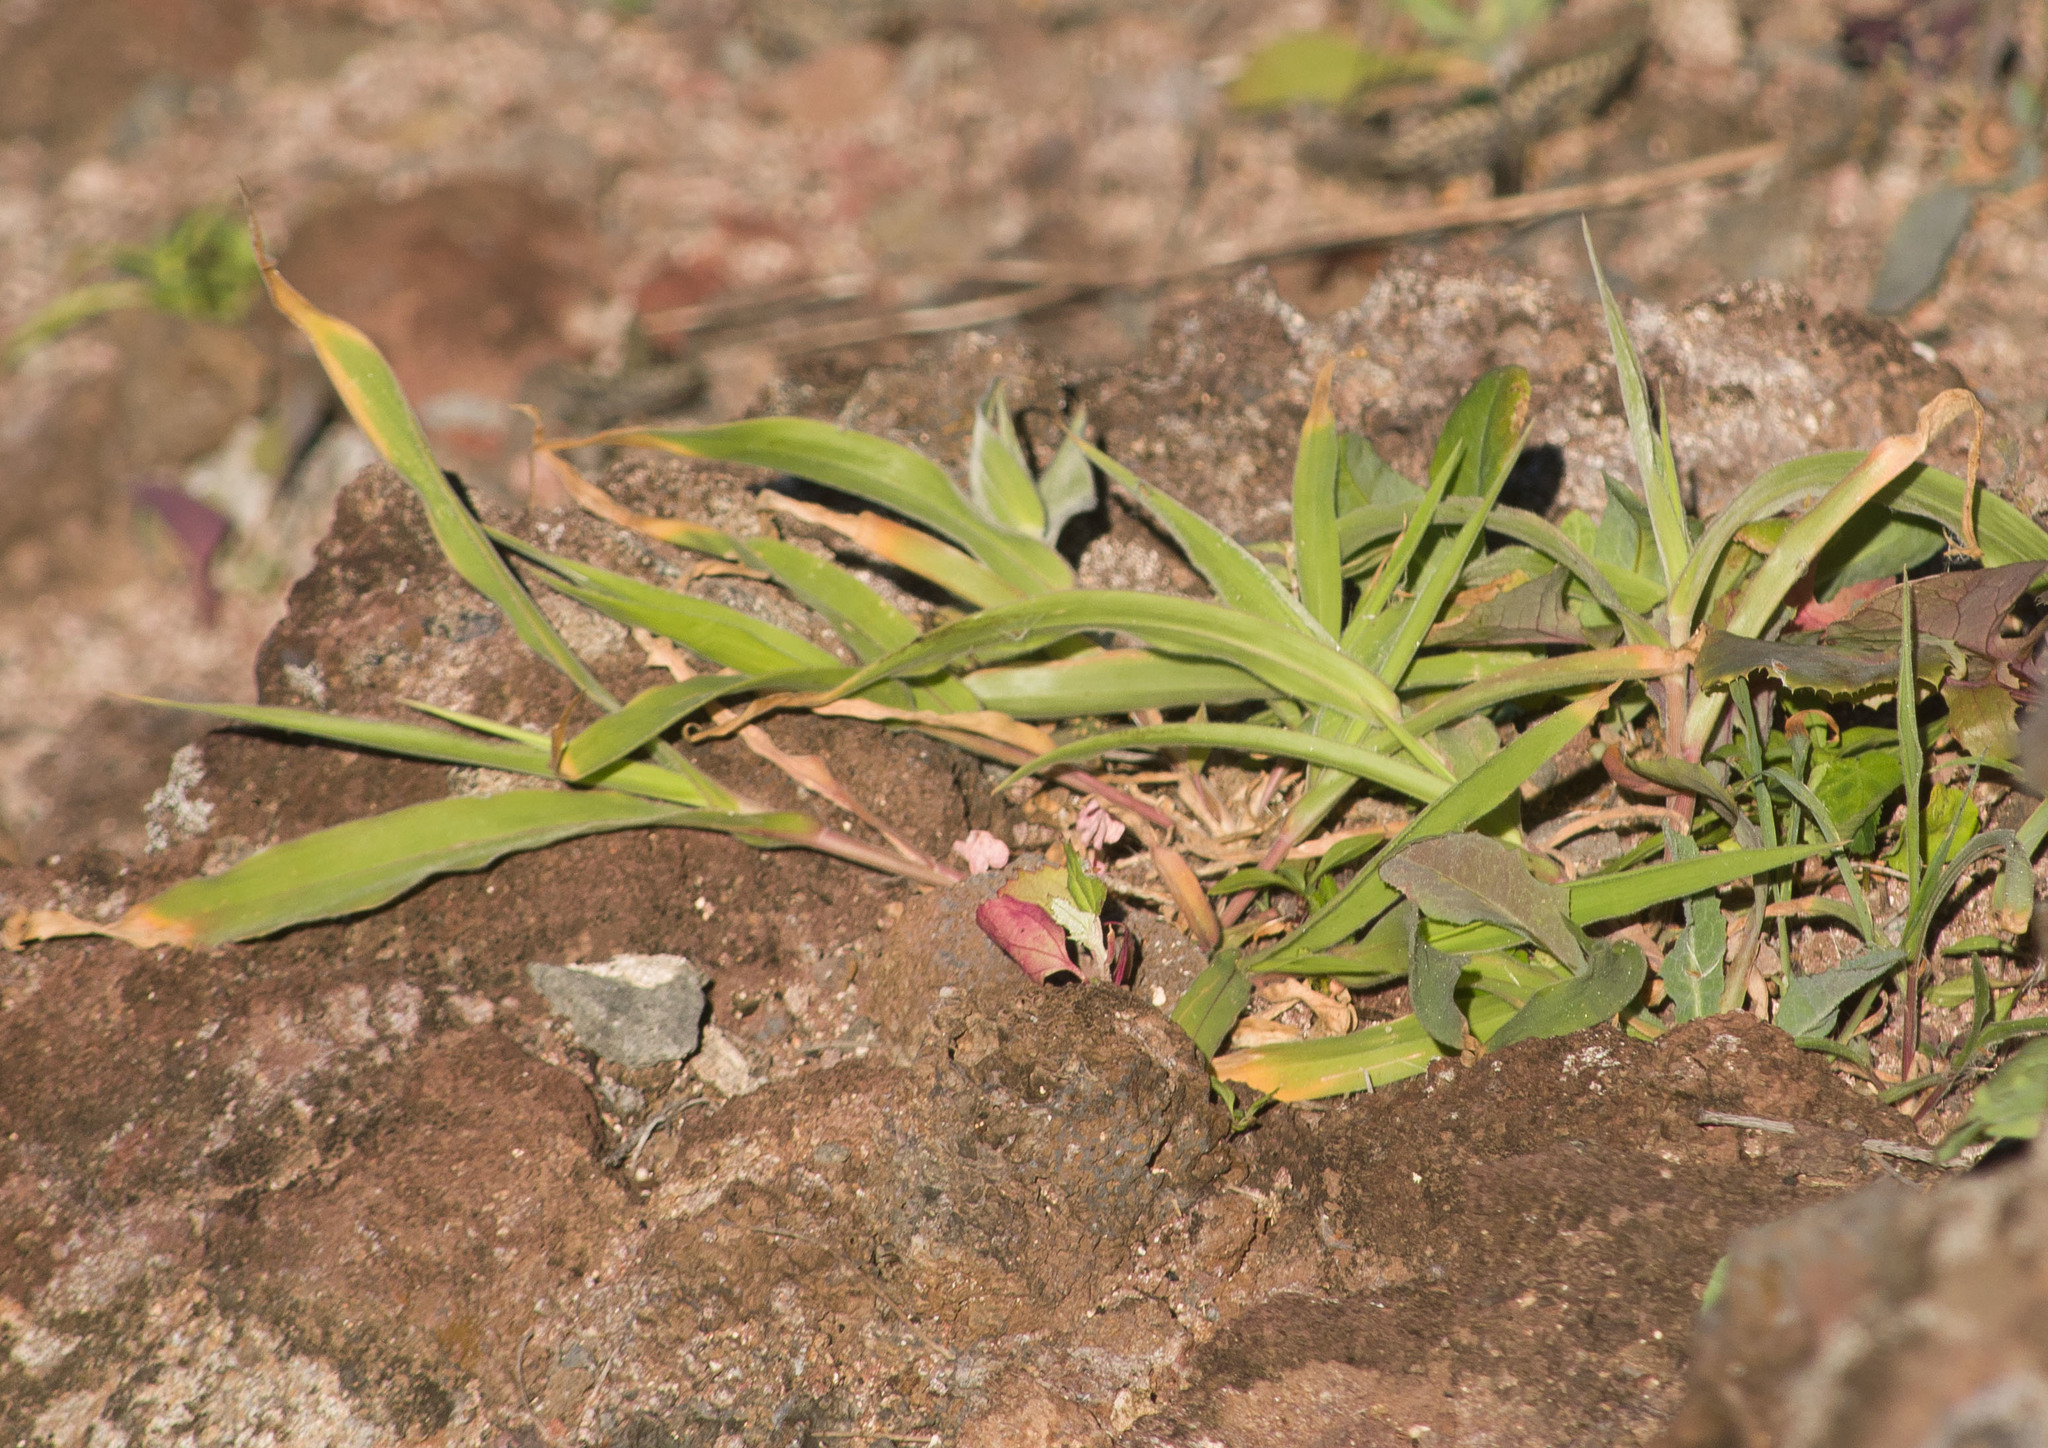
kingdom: Plantae
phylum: Tracheophyta
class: Liliopsida
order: Poales
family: Poaceae
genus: Panicum
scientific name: Panicum torridum
